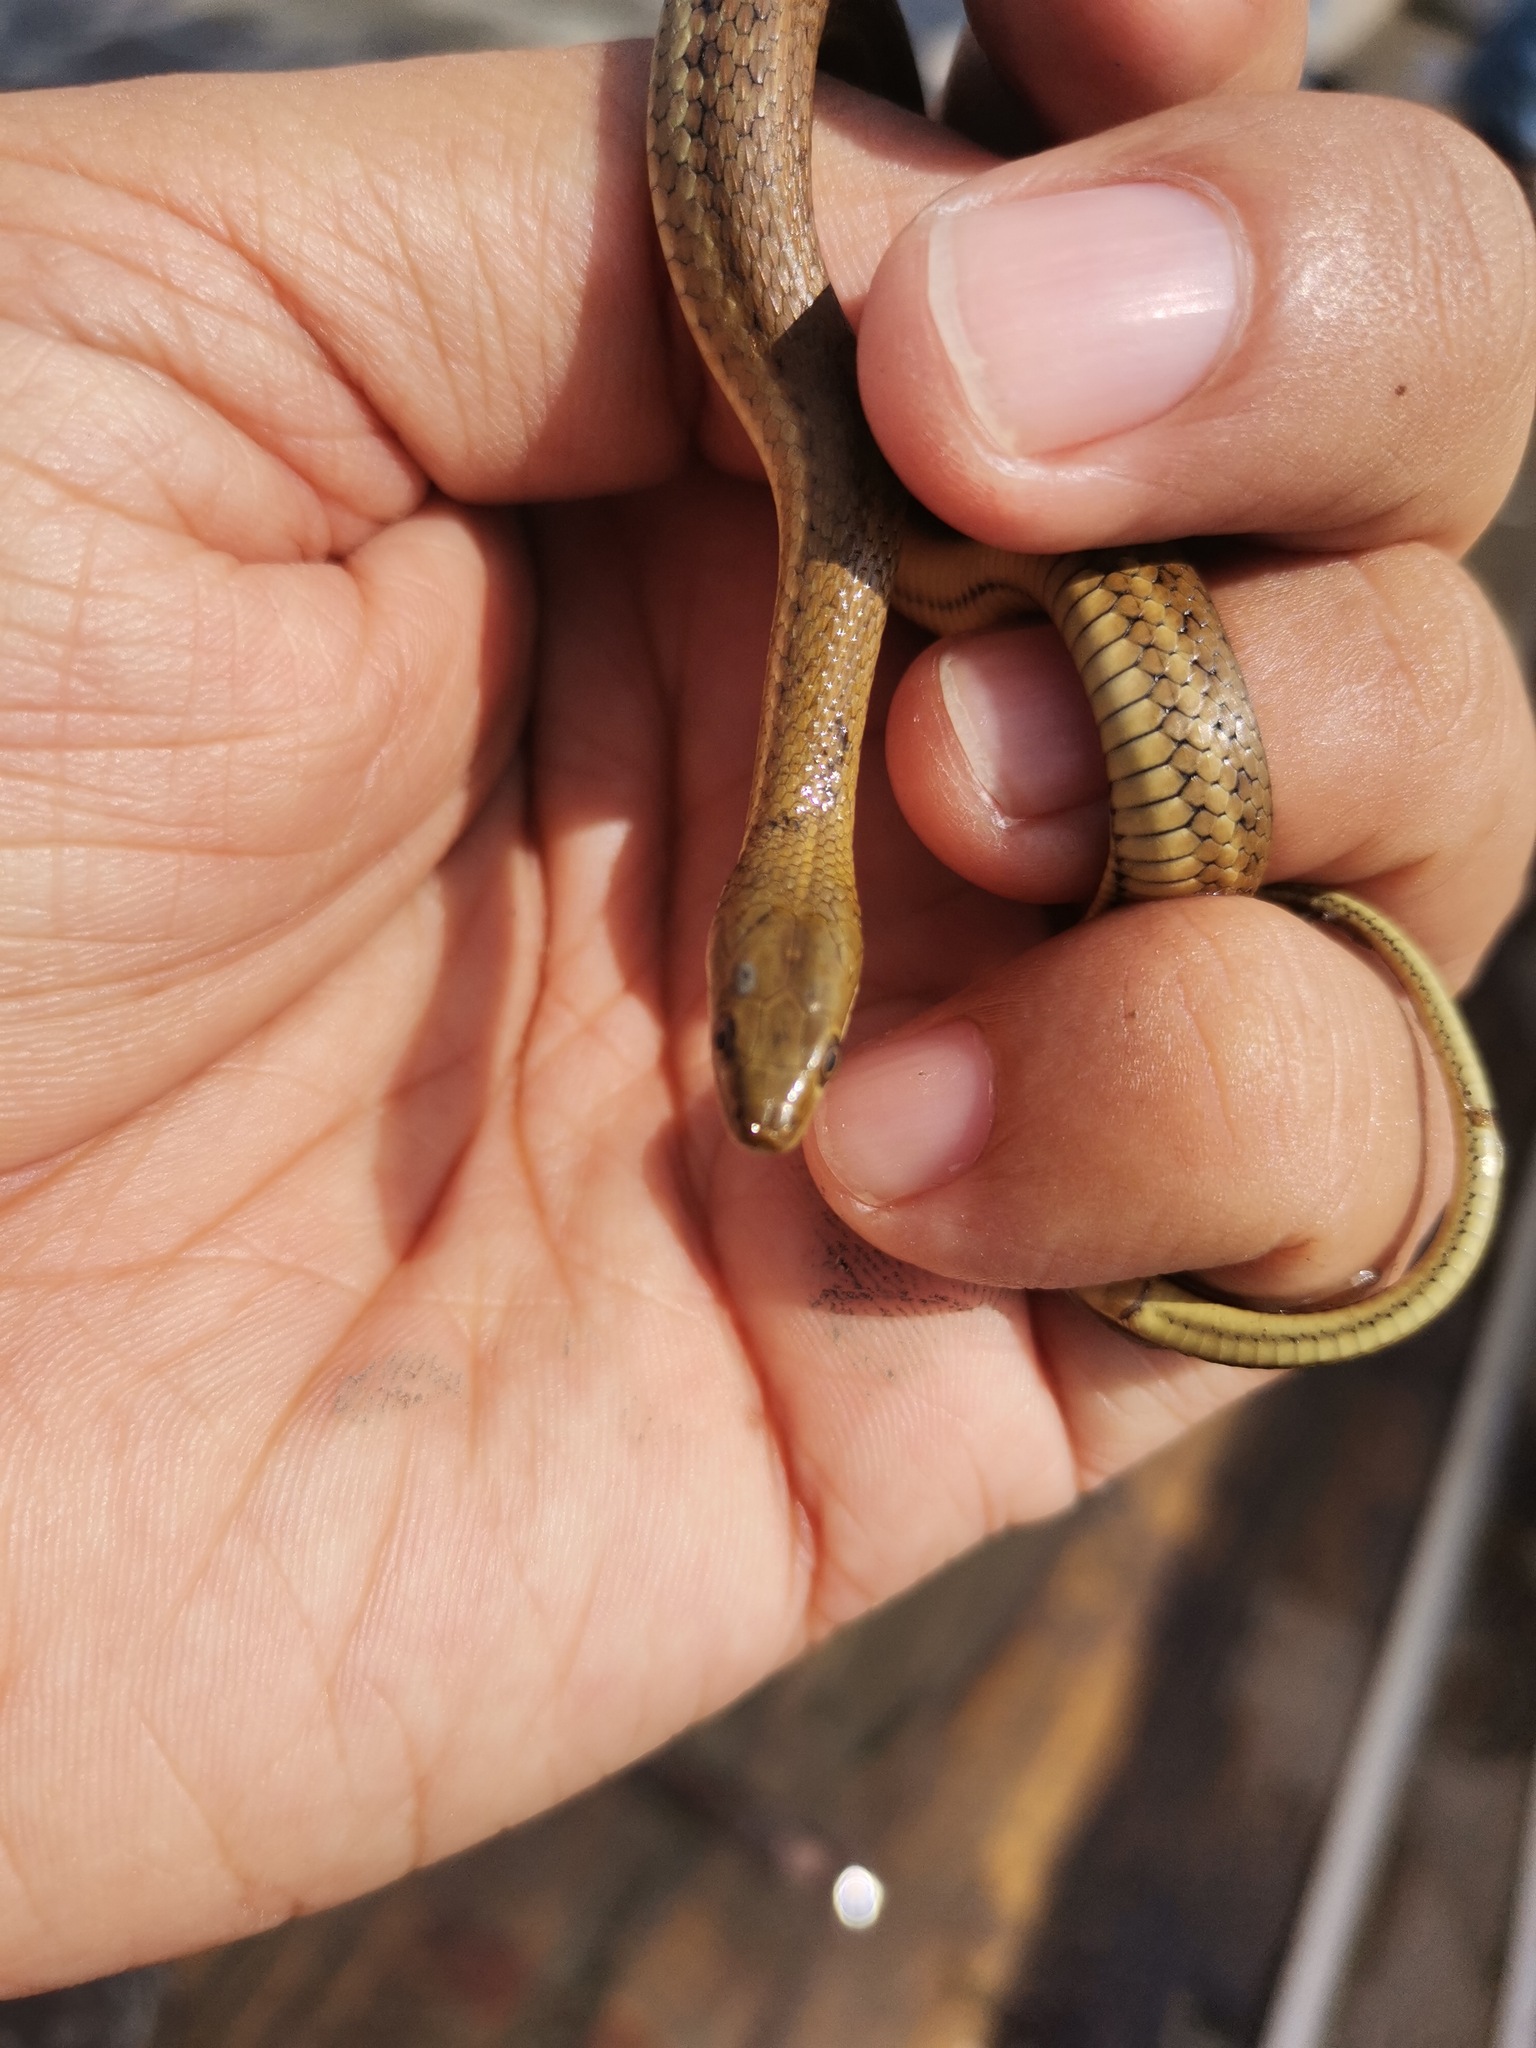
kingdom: Animalia
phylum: Chordata
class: Squamata
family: Colubridae
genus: Thamnophis
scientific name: Thamnophis melanogaster
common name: Blackbelly garter snake
